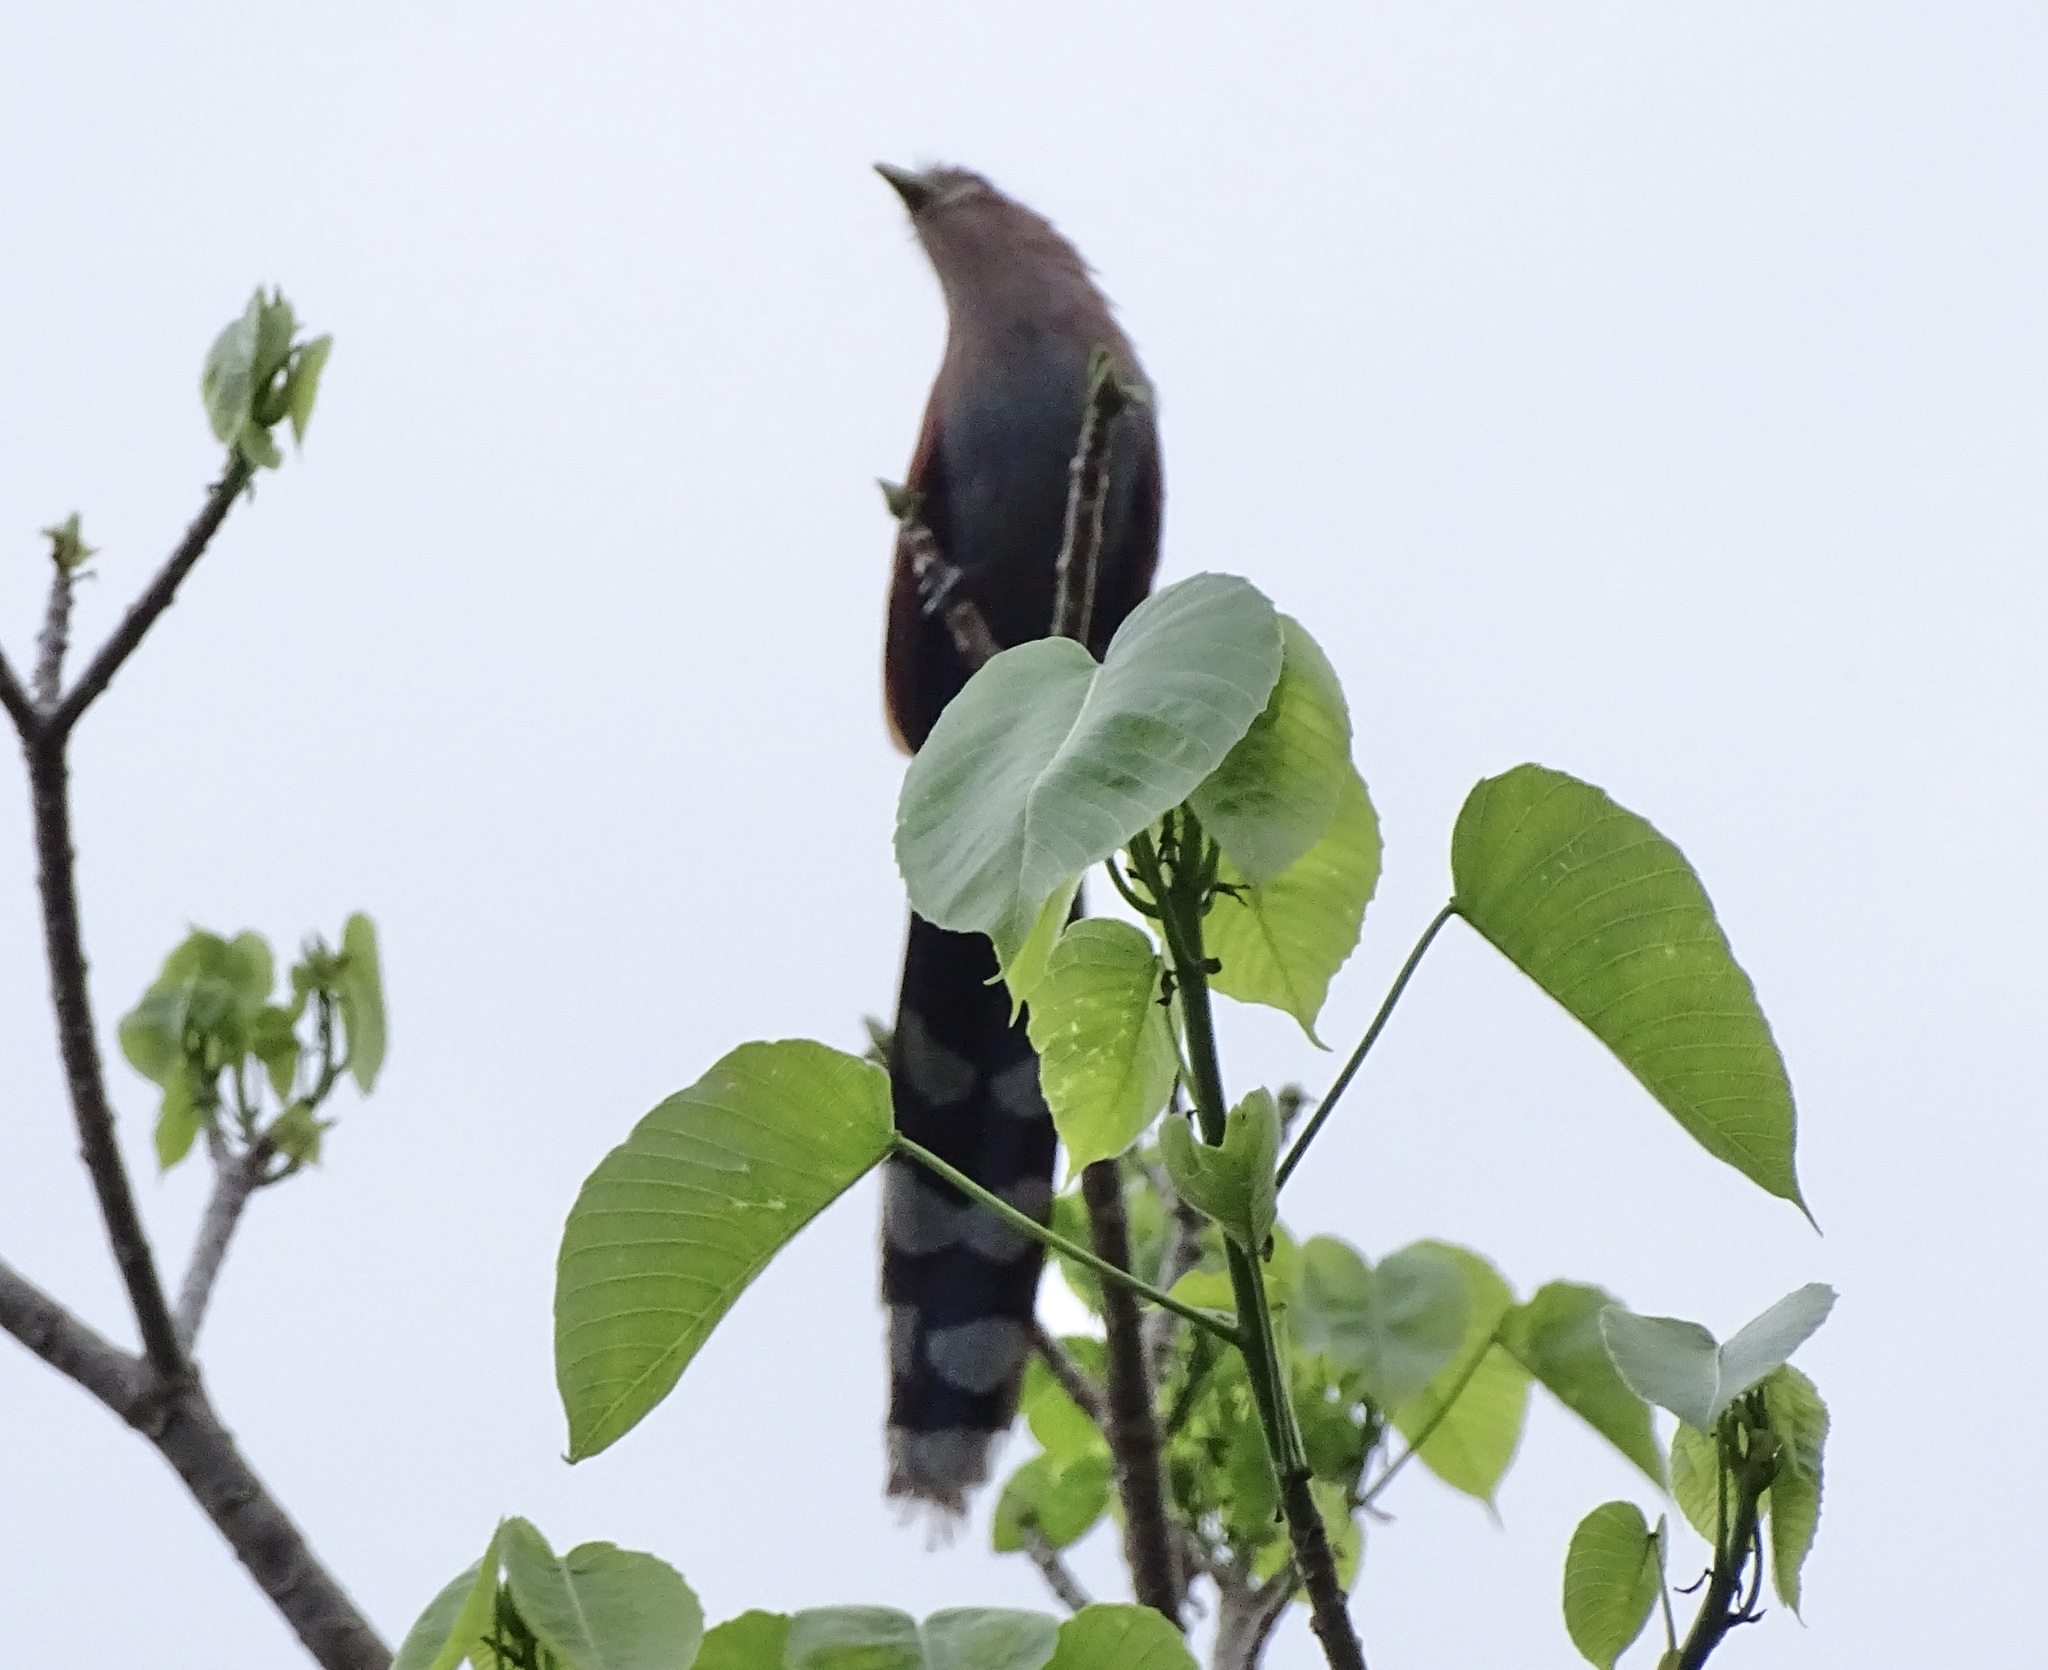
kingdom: Animalia
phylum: Chordata
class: Aves
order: Cuculiformes
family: Cuculidae
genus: Piaya
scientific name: Piaya cayana
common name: Squirrel cuckoo
